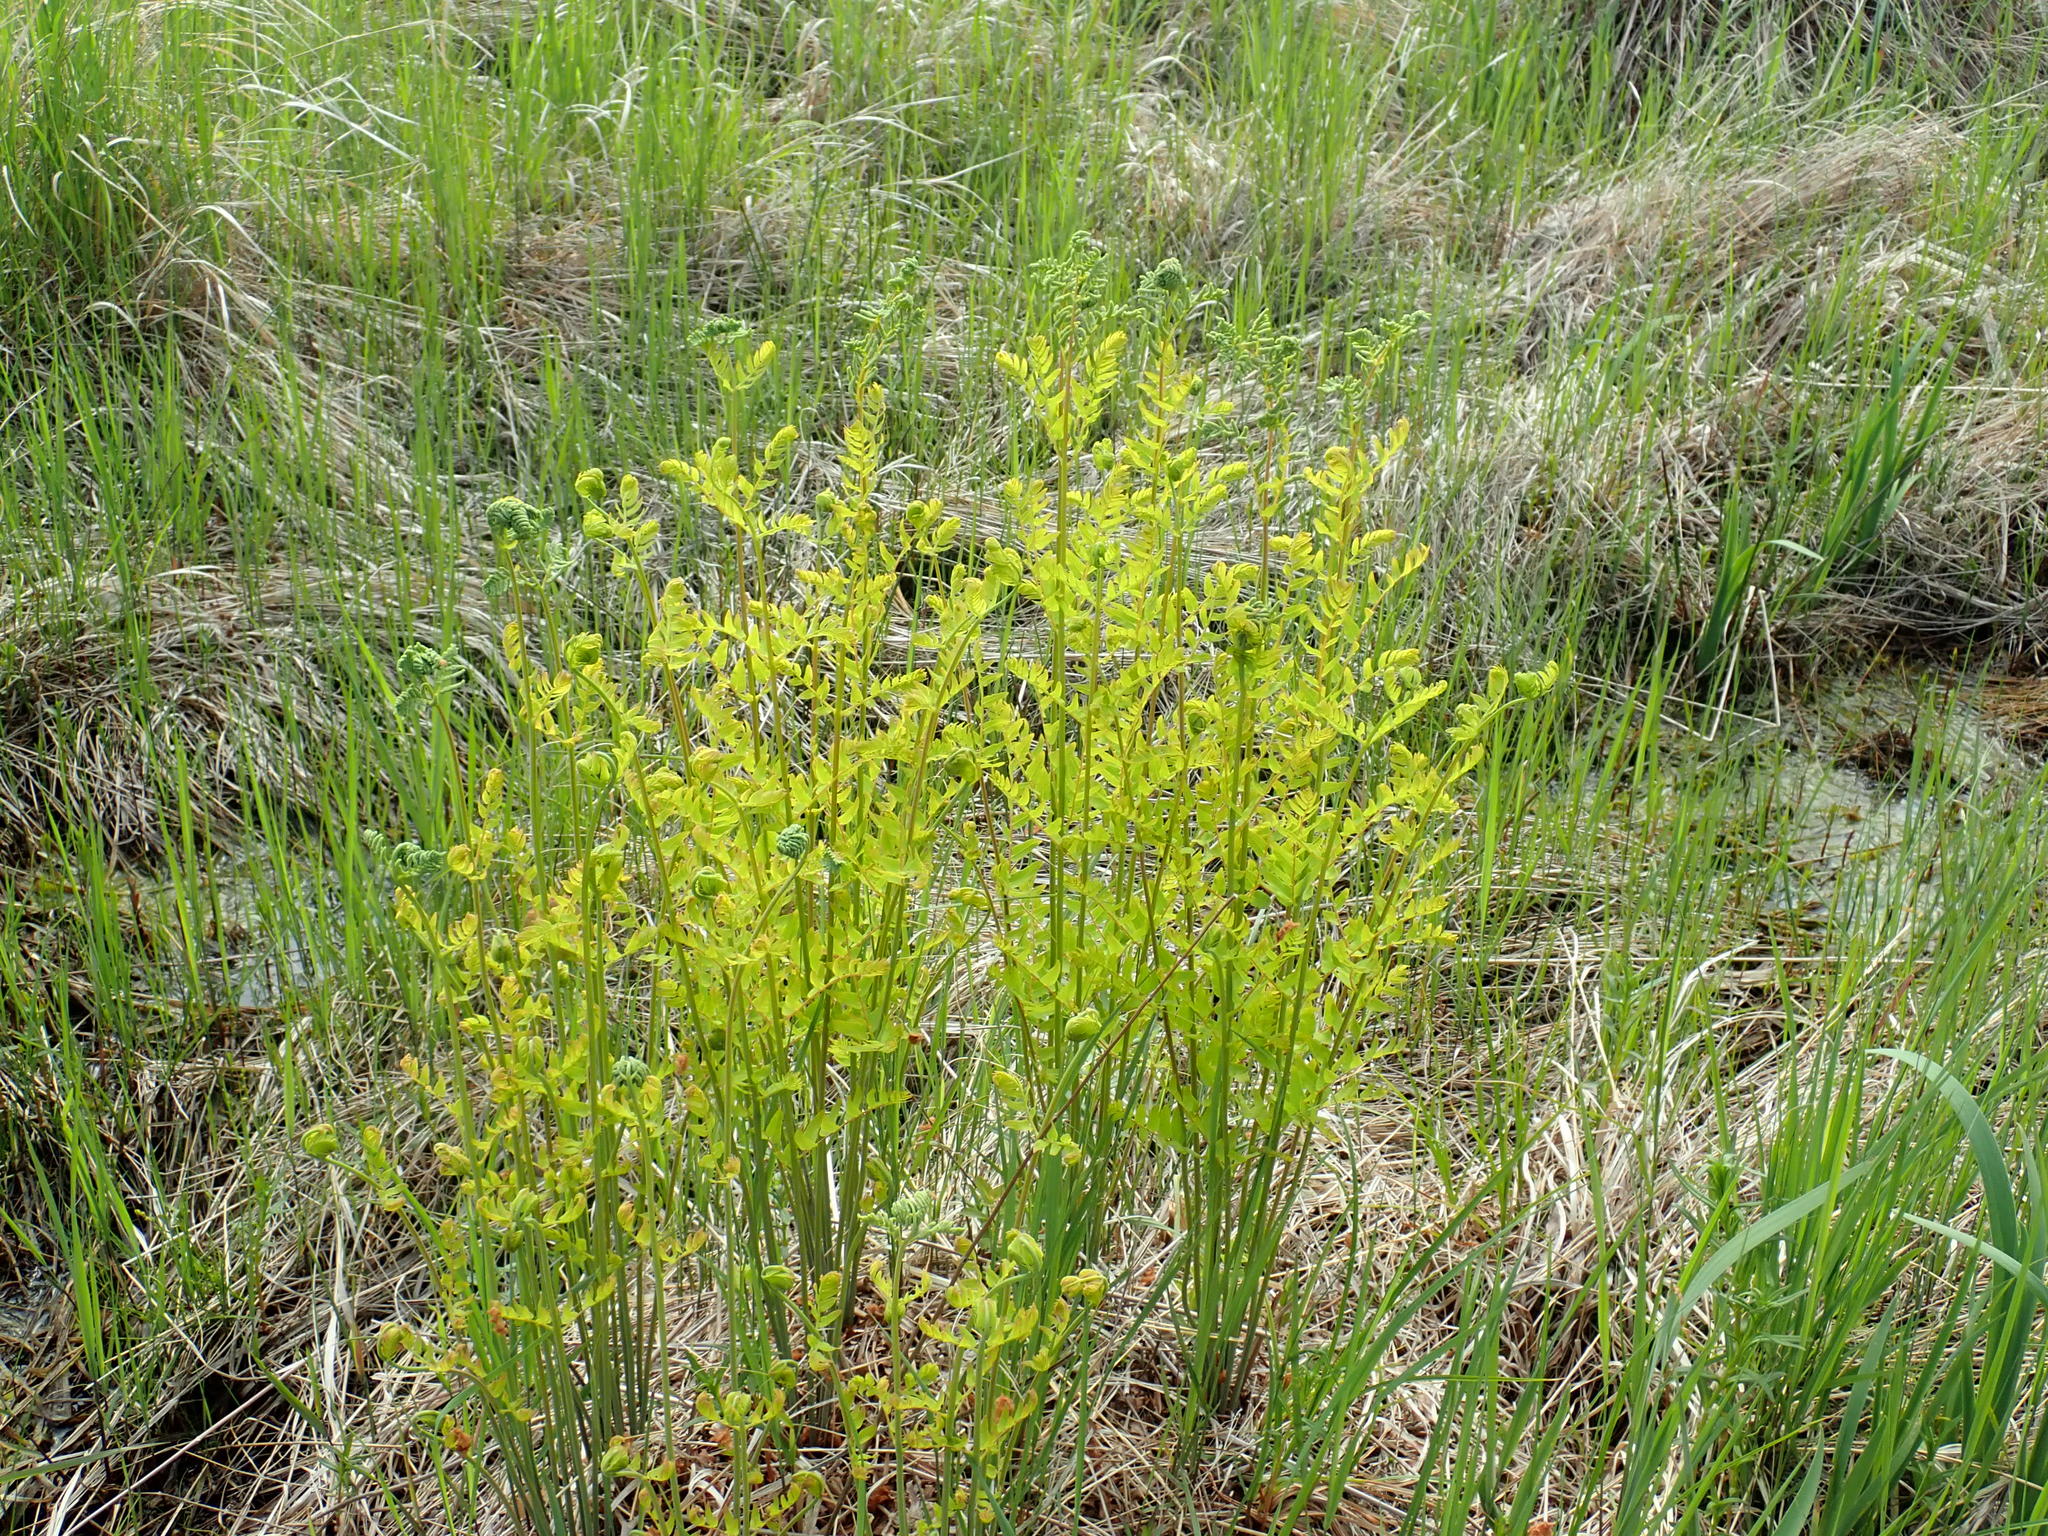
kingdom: Plantae
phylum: Tracheophyta
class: Polypodiopsida
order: Osmundales
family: Osmundaceae
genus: Osmunda
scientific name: Osmunda spectabilis
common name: American royal fern
